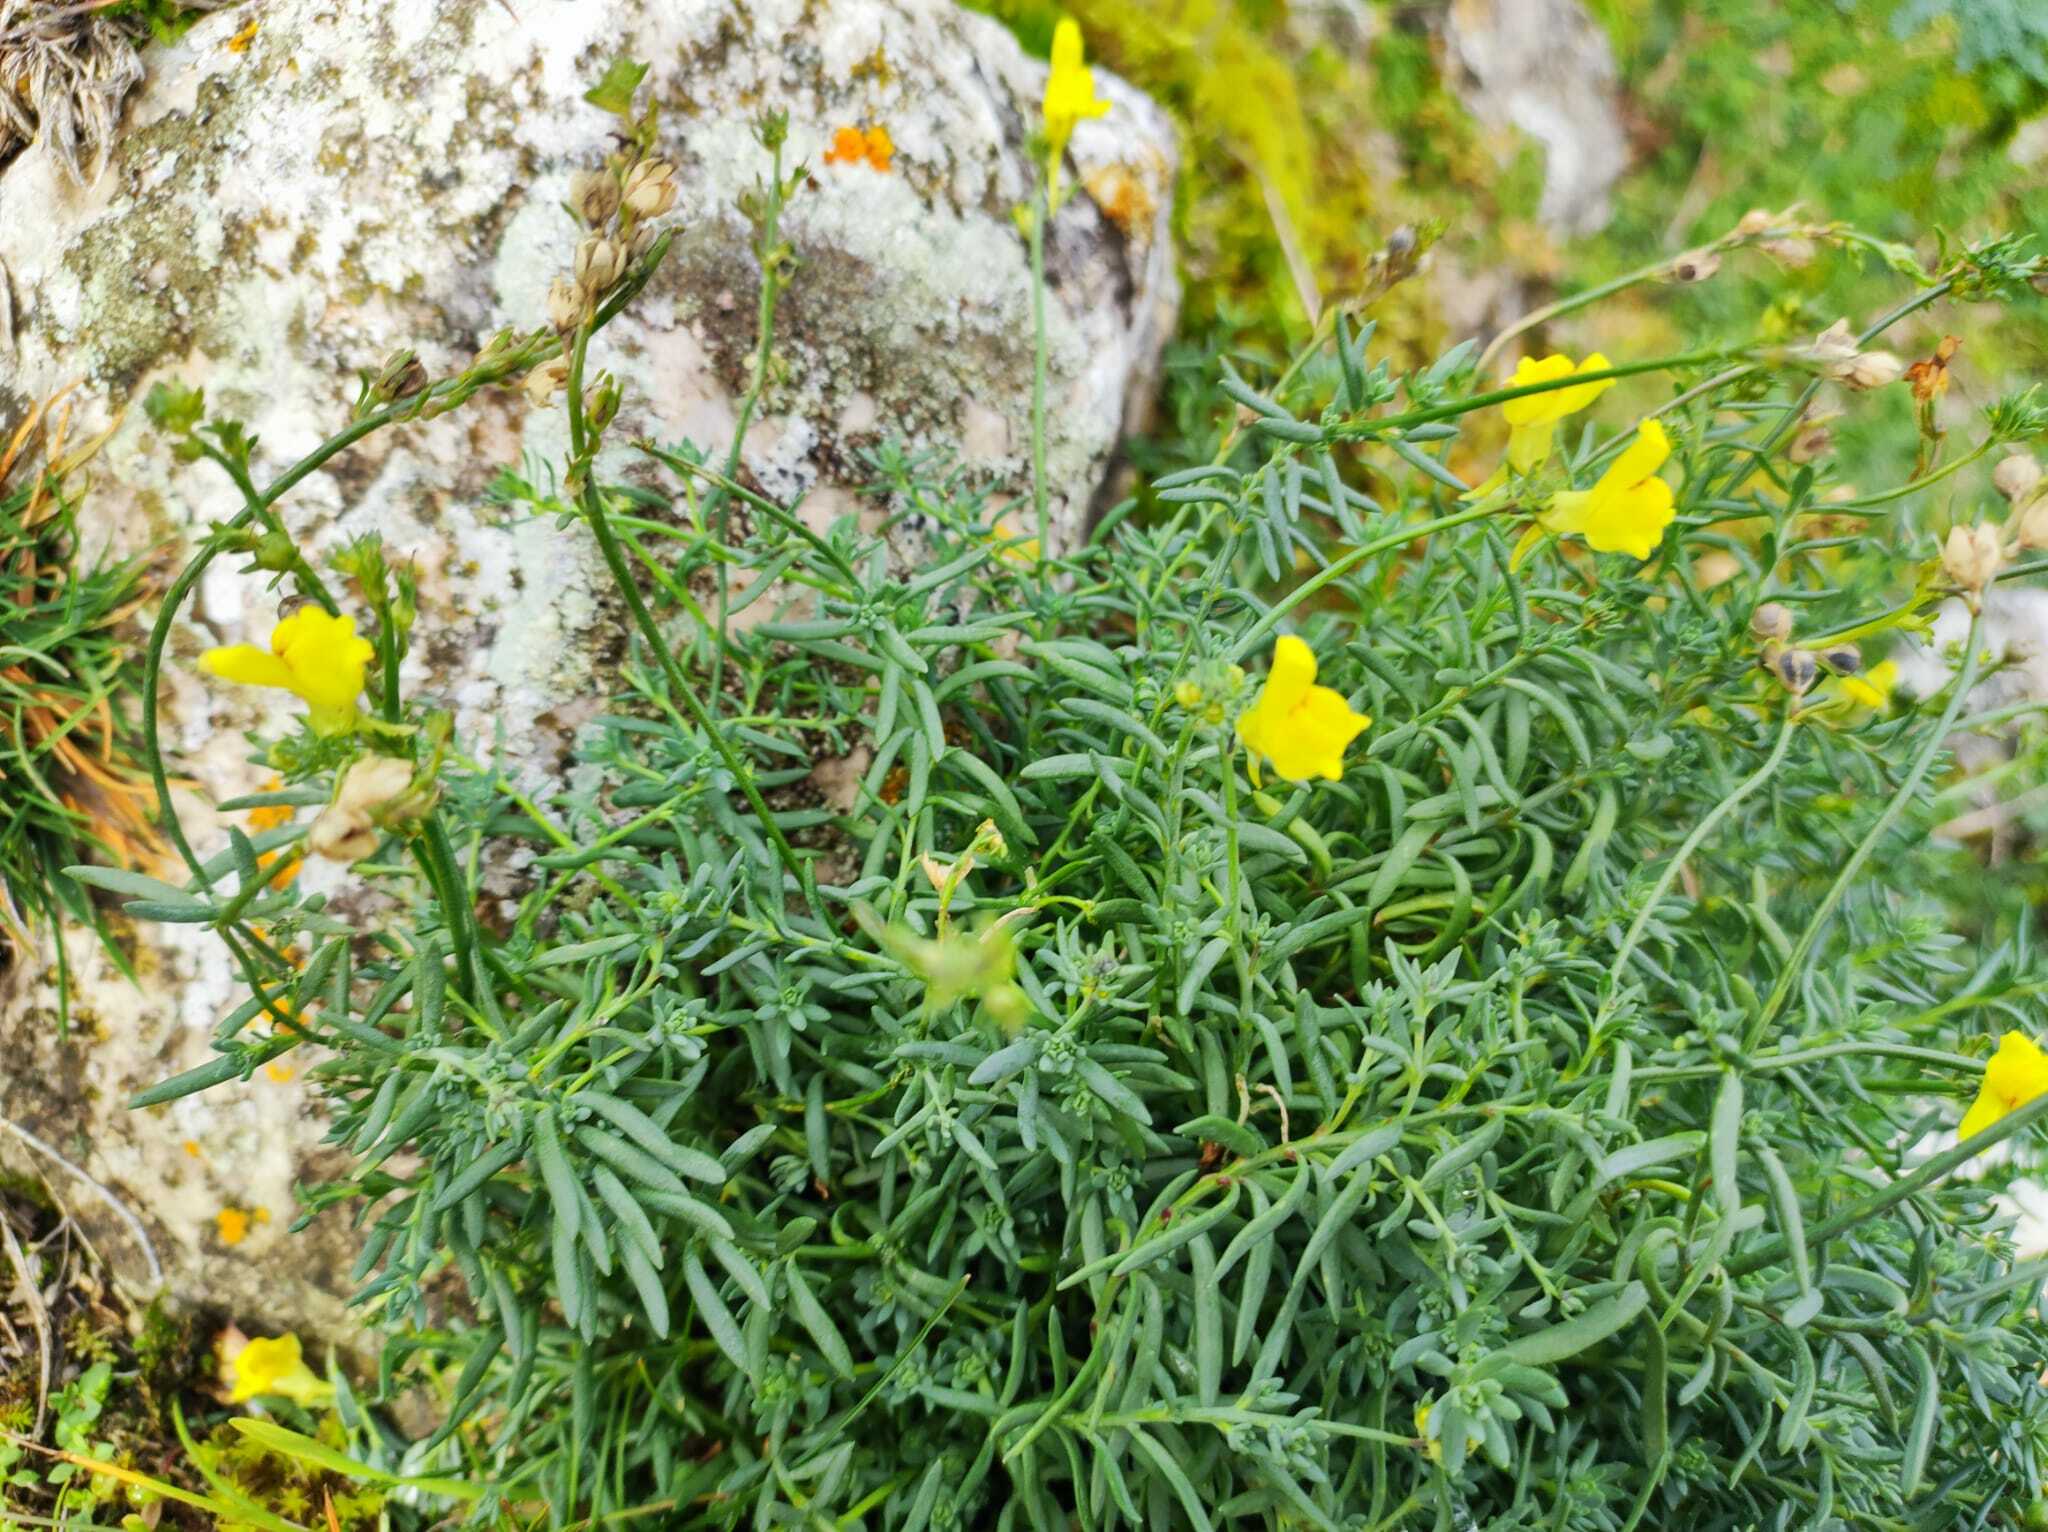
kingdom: Plantae
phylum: Tracheophyta
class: Magnoliopsida
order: Lamiales
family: Plantaginaceae
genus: Linaria
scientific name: Linaria propinqua
